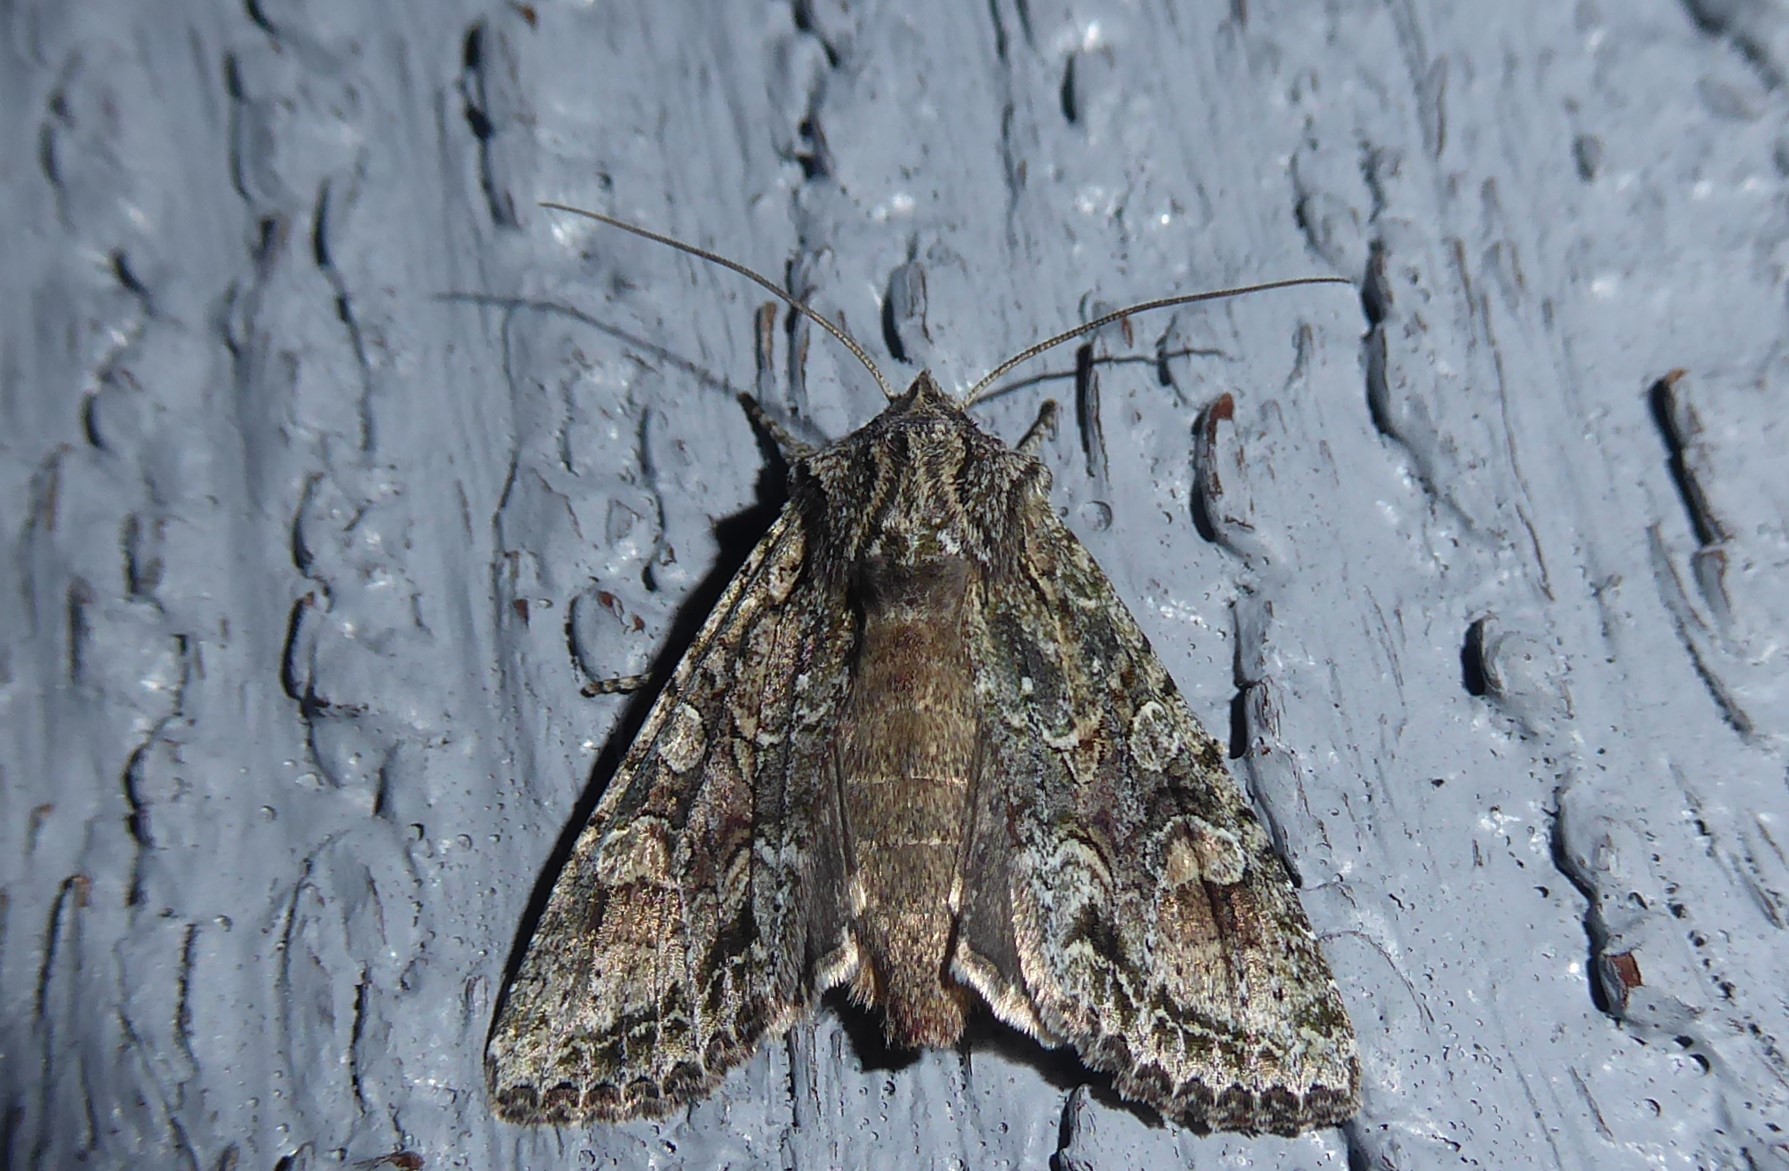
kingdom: Animalia
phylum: Arthropoda
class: Insecta
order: Lepidoptera
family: Noctuidae
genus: Ichneutica
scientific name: Ichneutica mutans
